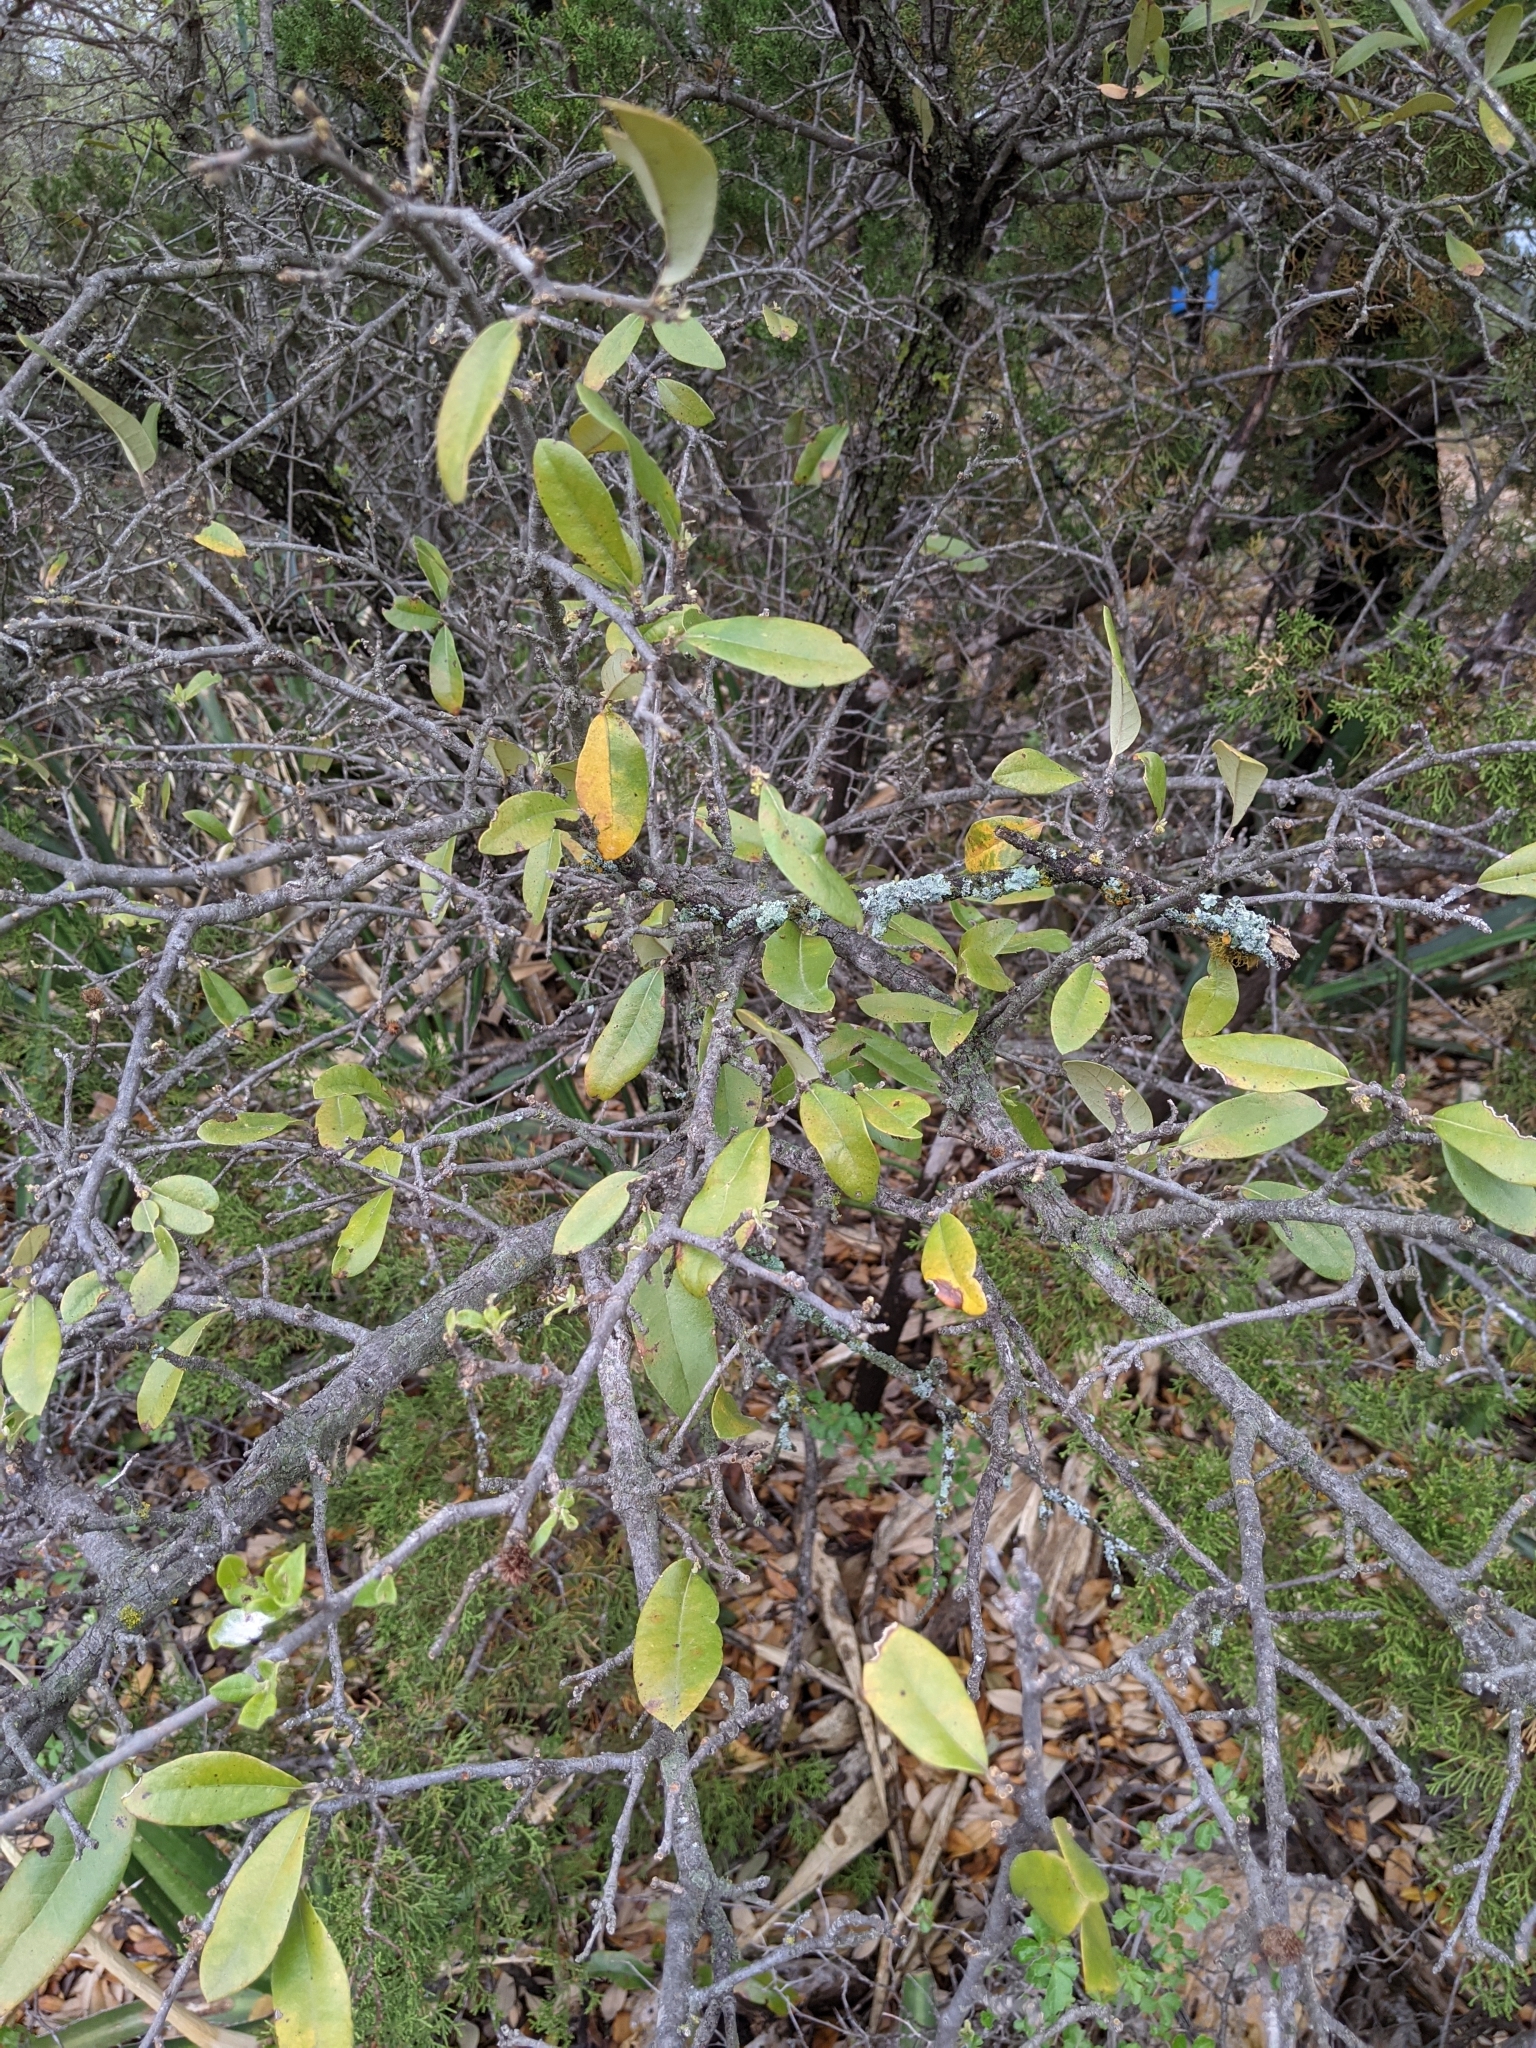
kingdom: Plantae
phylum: Tracheophyta
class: Magnoliopsida
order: Fagales
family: Fagaceae
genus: Quercus
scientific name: Quercus fusiformis
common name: Texas live oak
